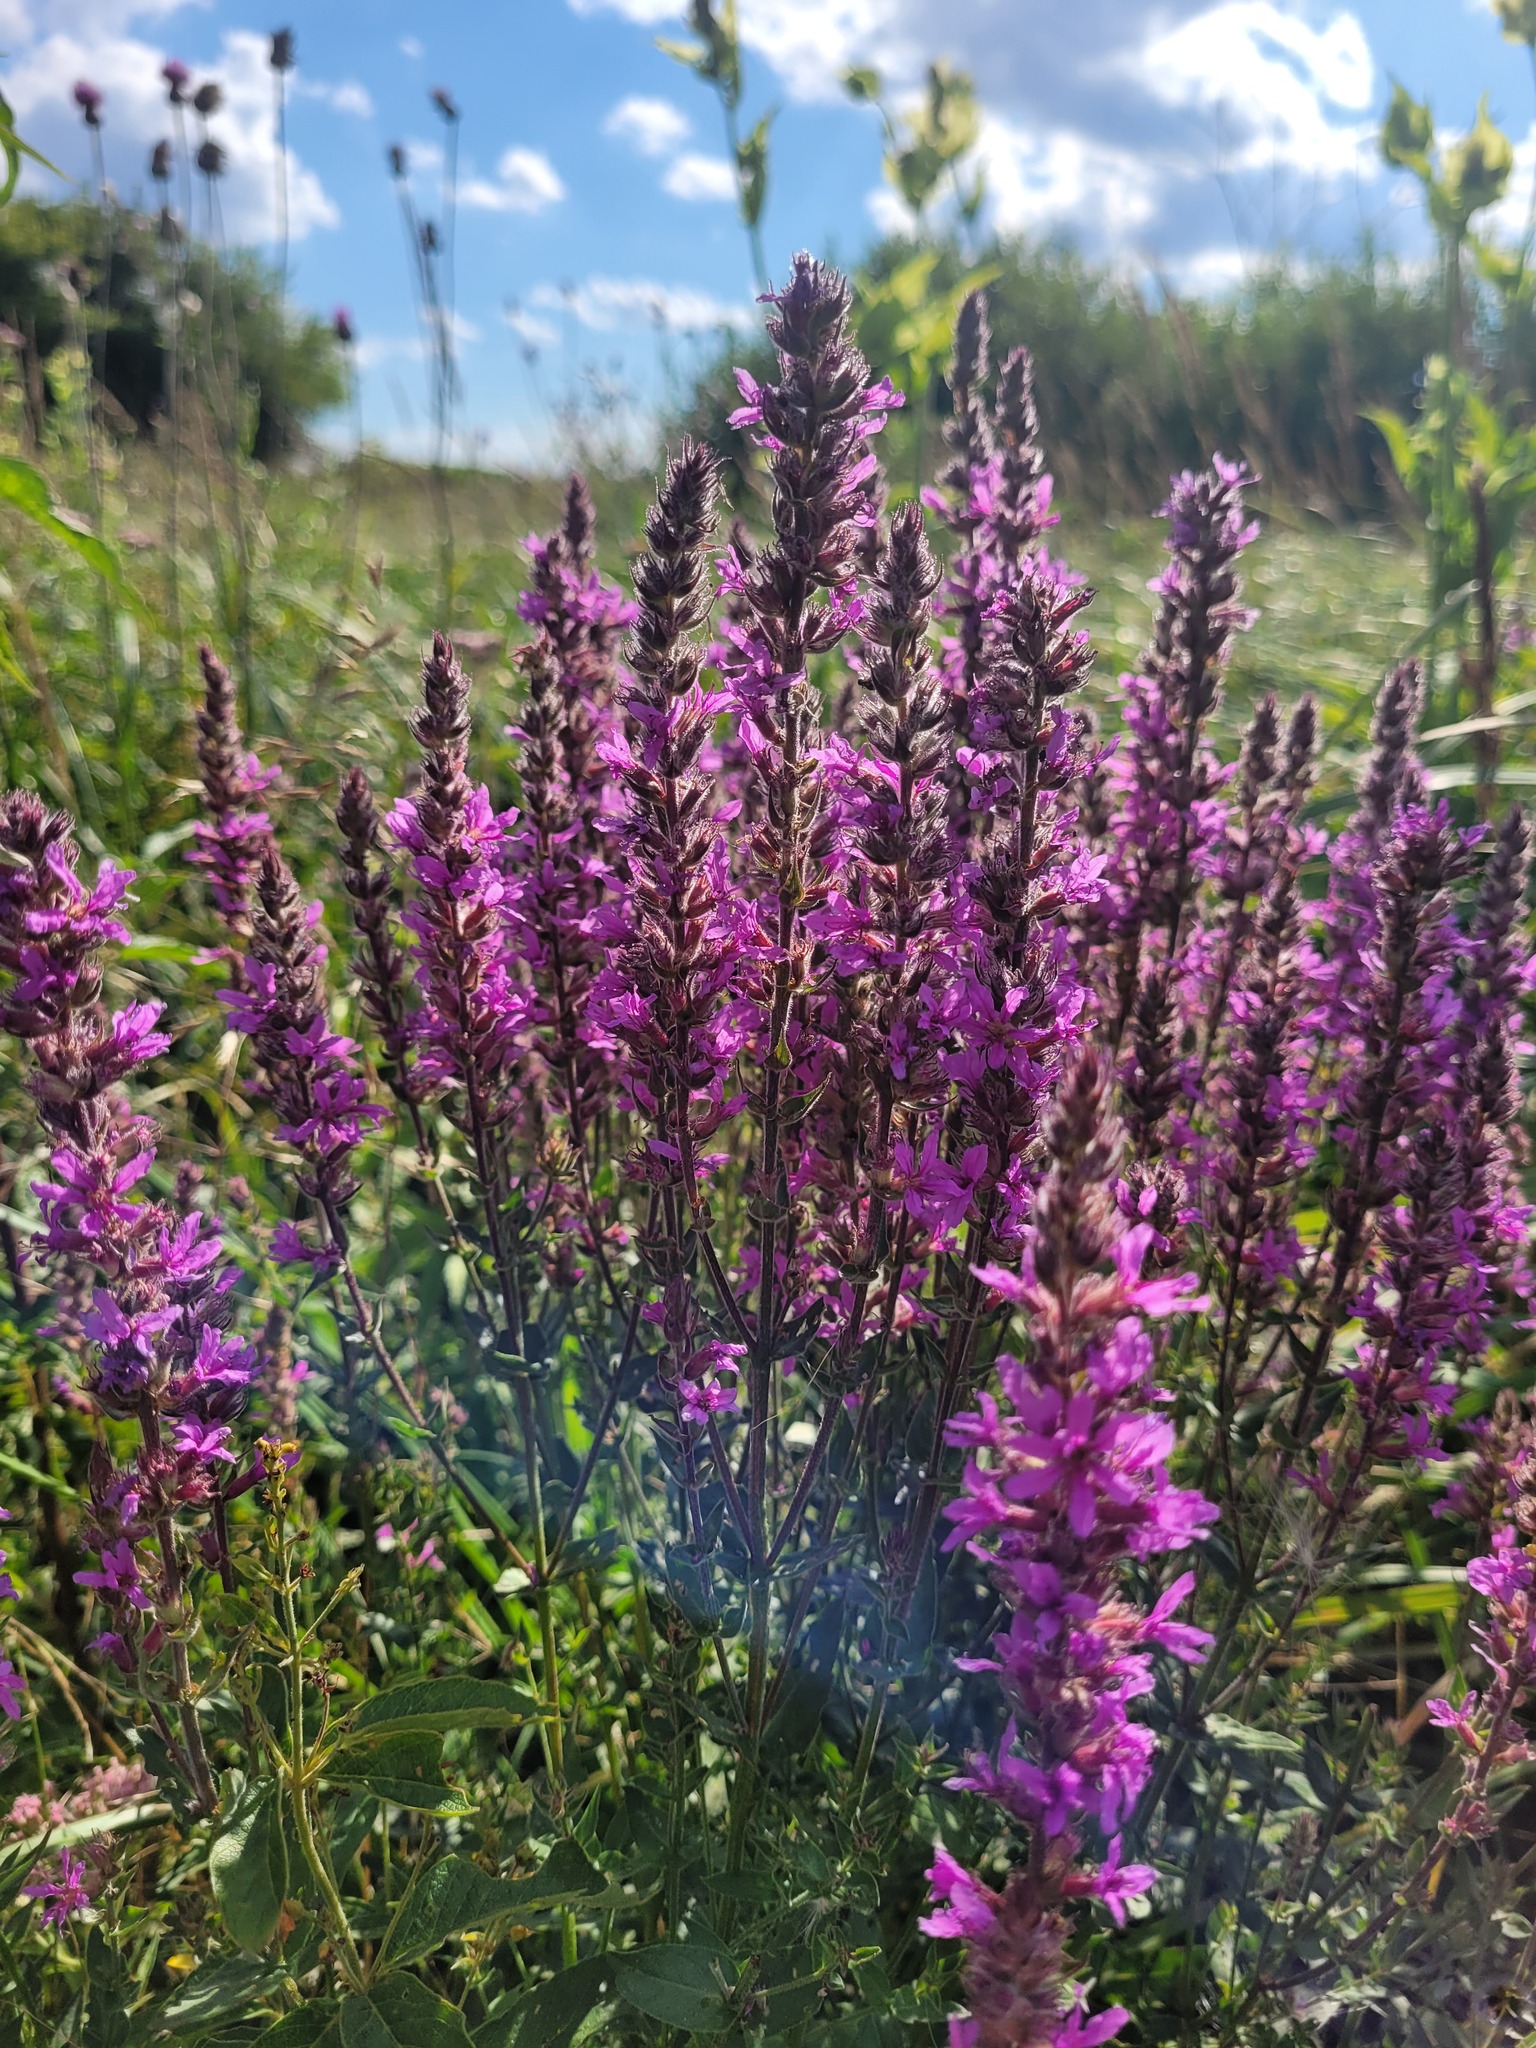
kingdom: Plantae
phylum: Tracheophyta
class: Magnoliopsida
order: Myrtales
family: Lythraceae
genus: Lythrum
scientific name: Lythrum salicaria
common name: Purple loosestrife
